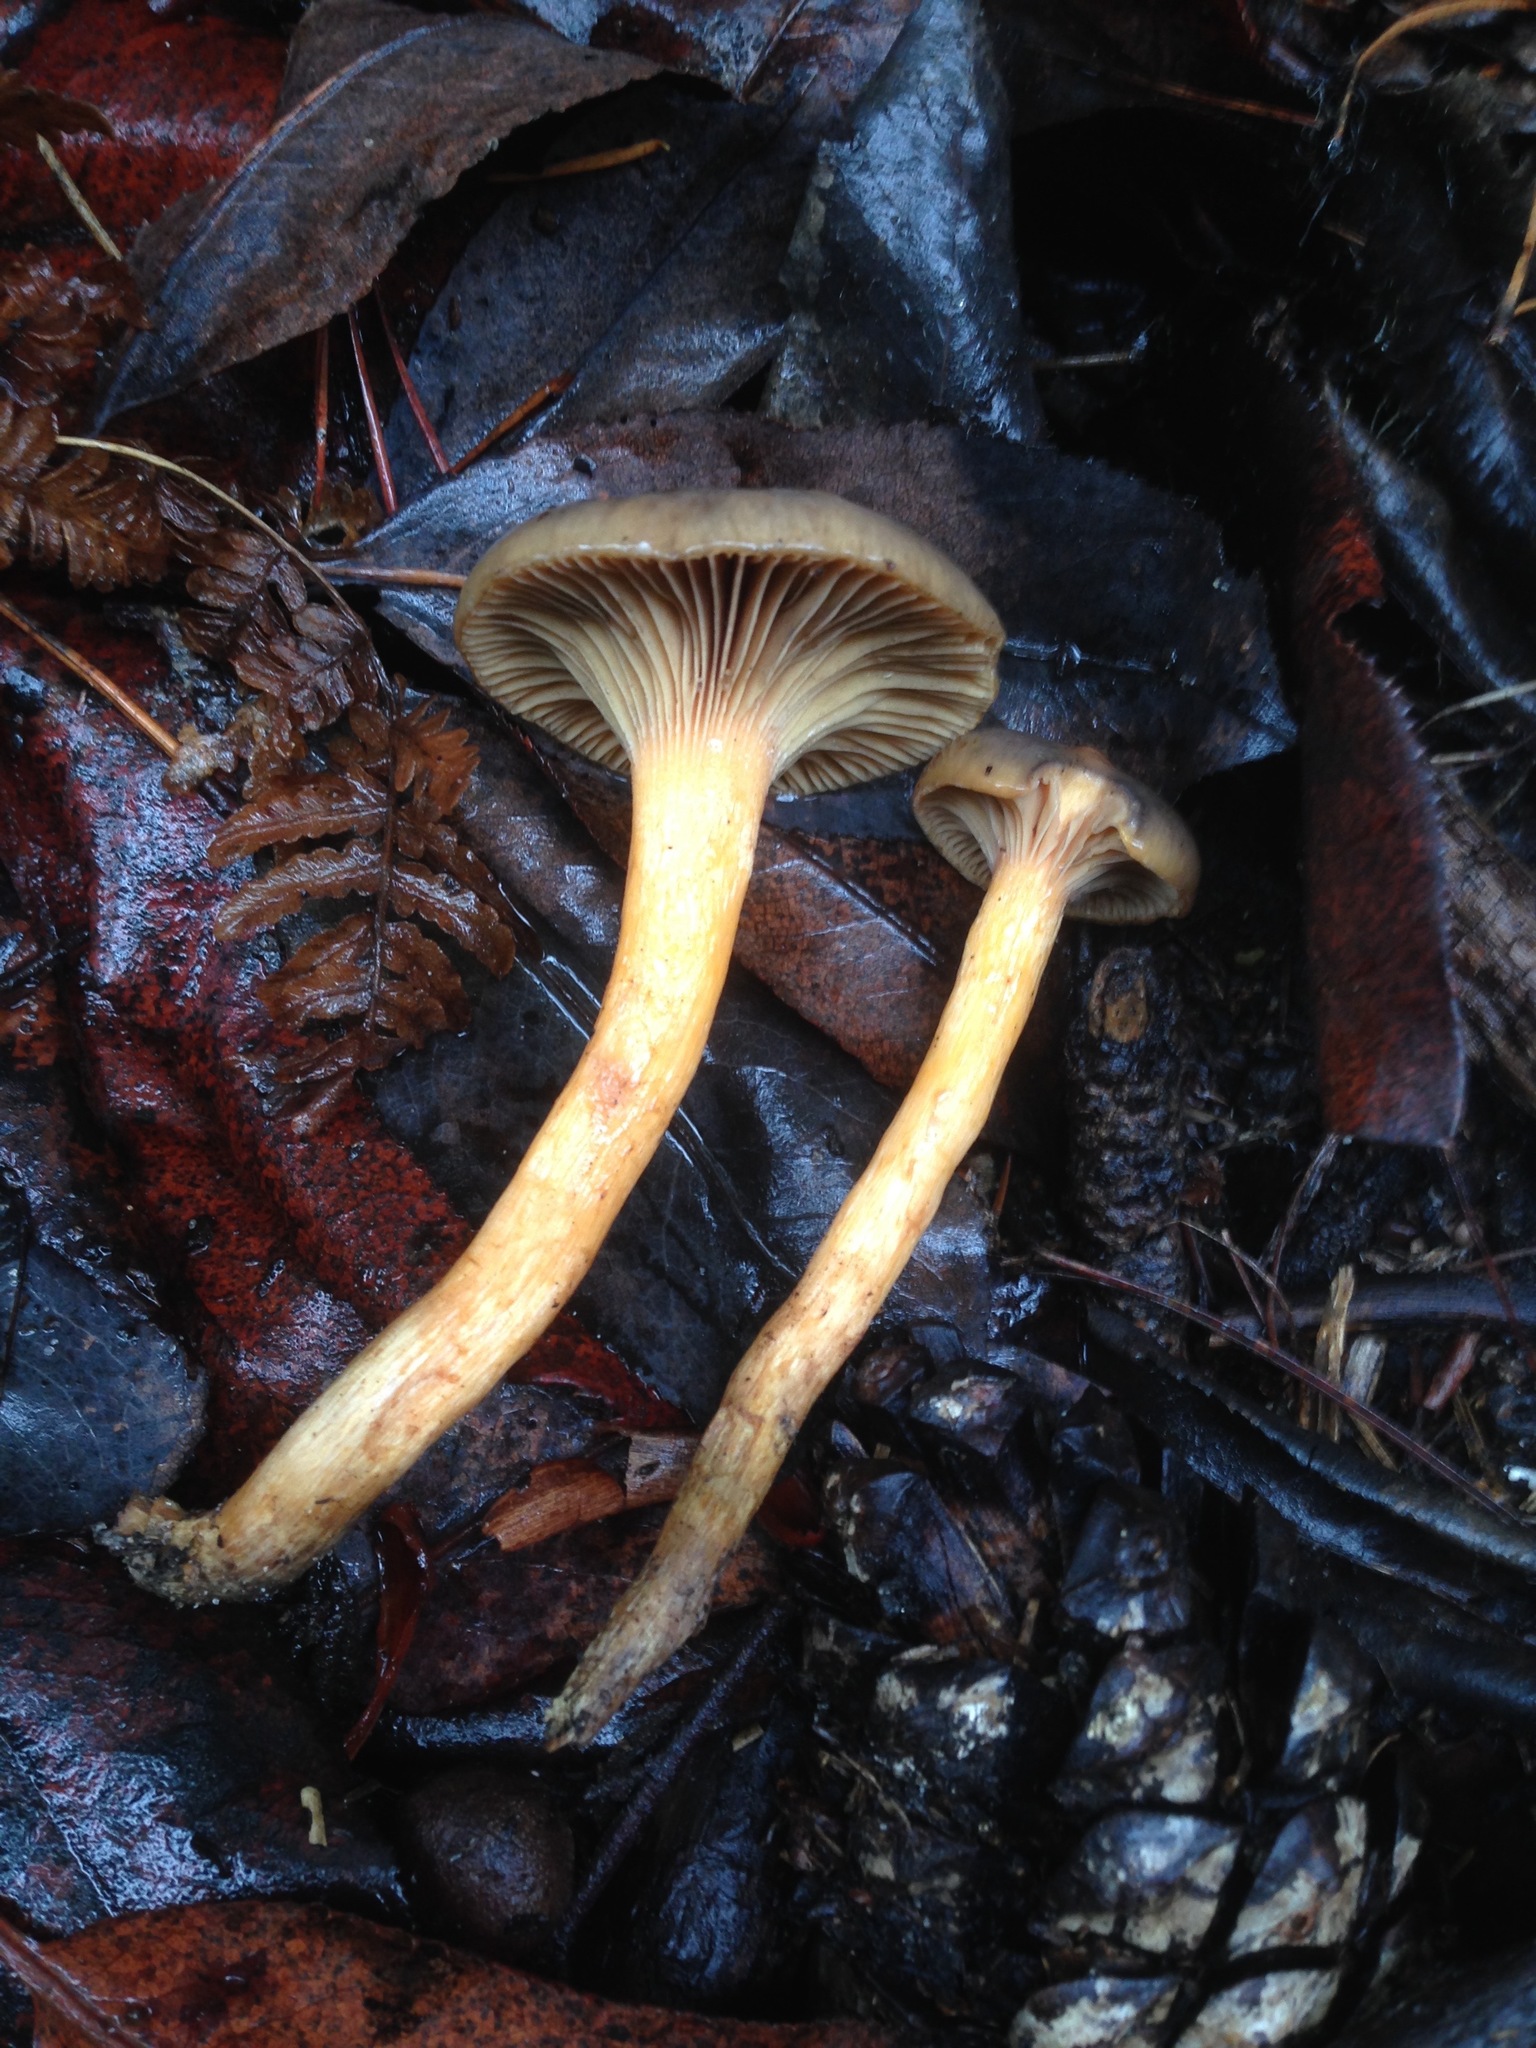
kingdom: Fungi
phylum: Basidiomycota
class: Agaricomycetes
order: Boletales
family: Gomphidiaceae
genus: Chroogomphus
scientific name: Chroogomphus ochraceus
